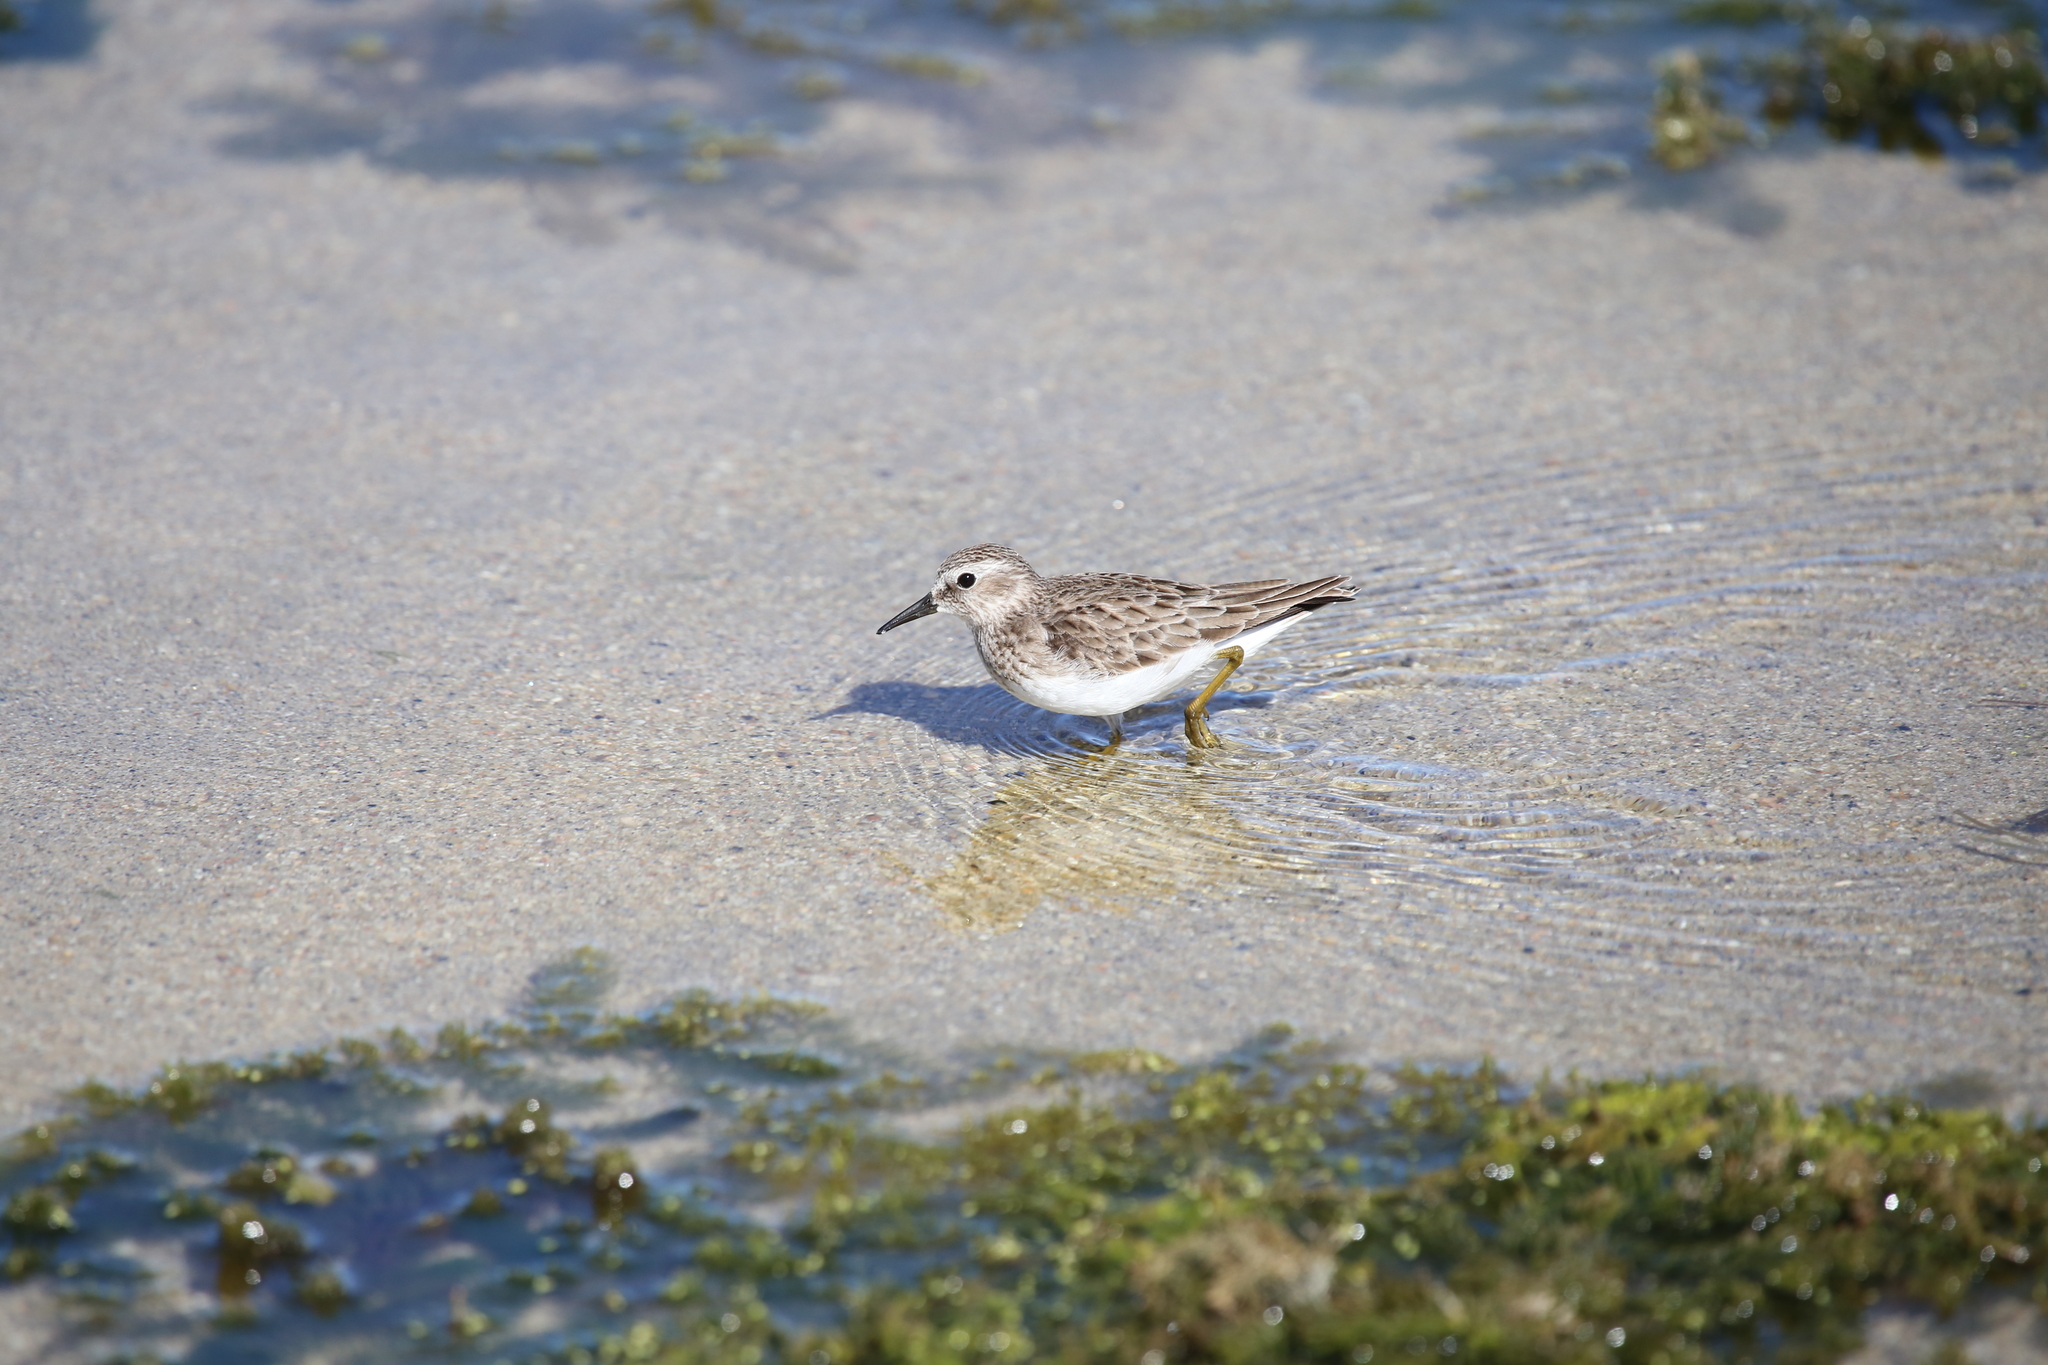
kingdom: Animalia
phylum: Chordata
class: Aves
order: Charadriiformes
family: Scolopacidae
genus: Calidris
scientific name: Calidris minutilla
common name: Least sandpiper
